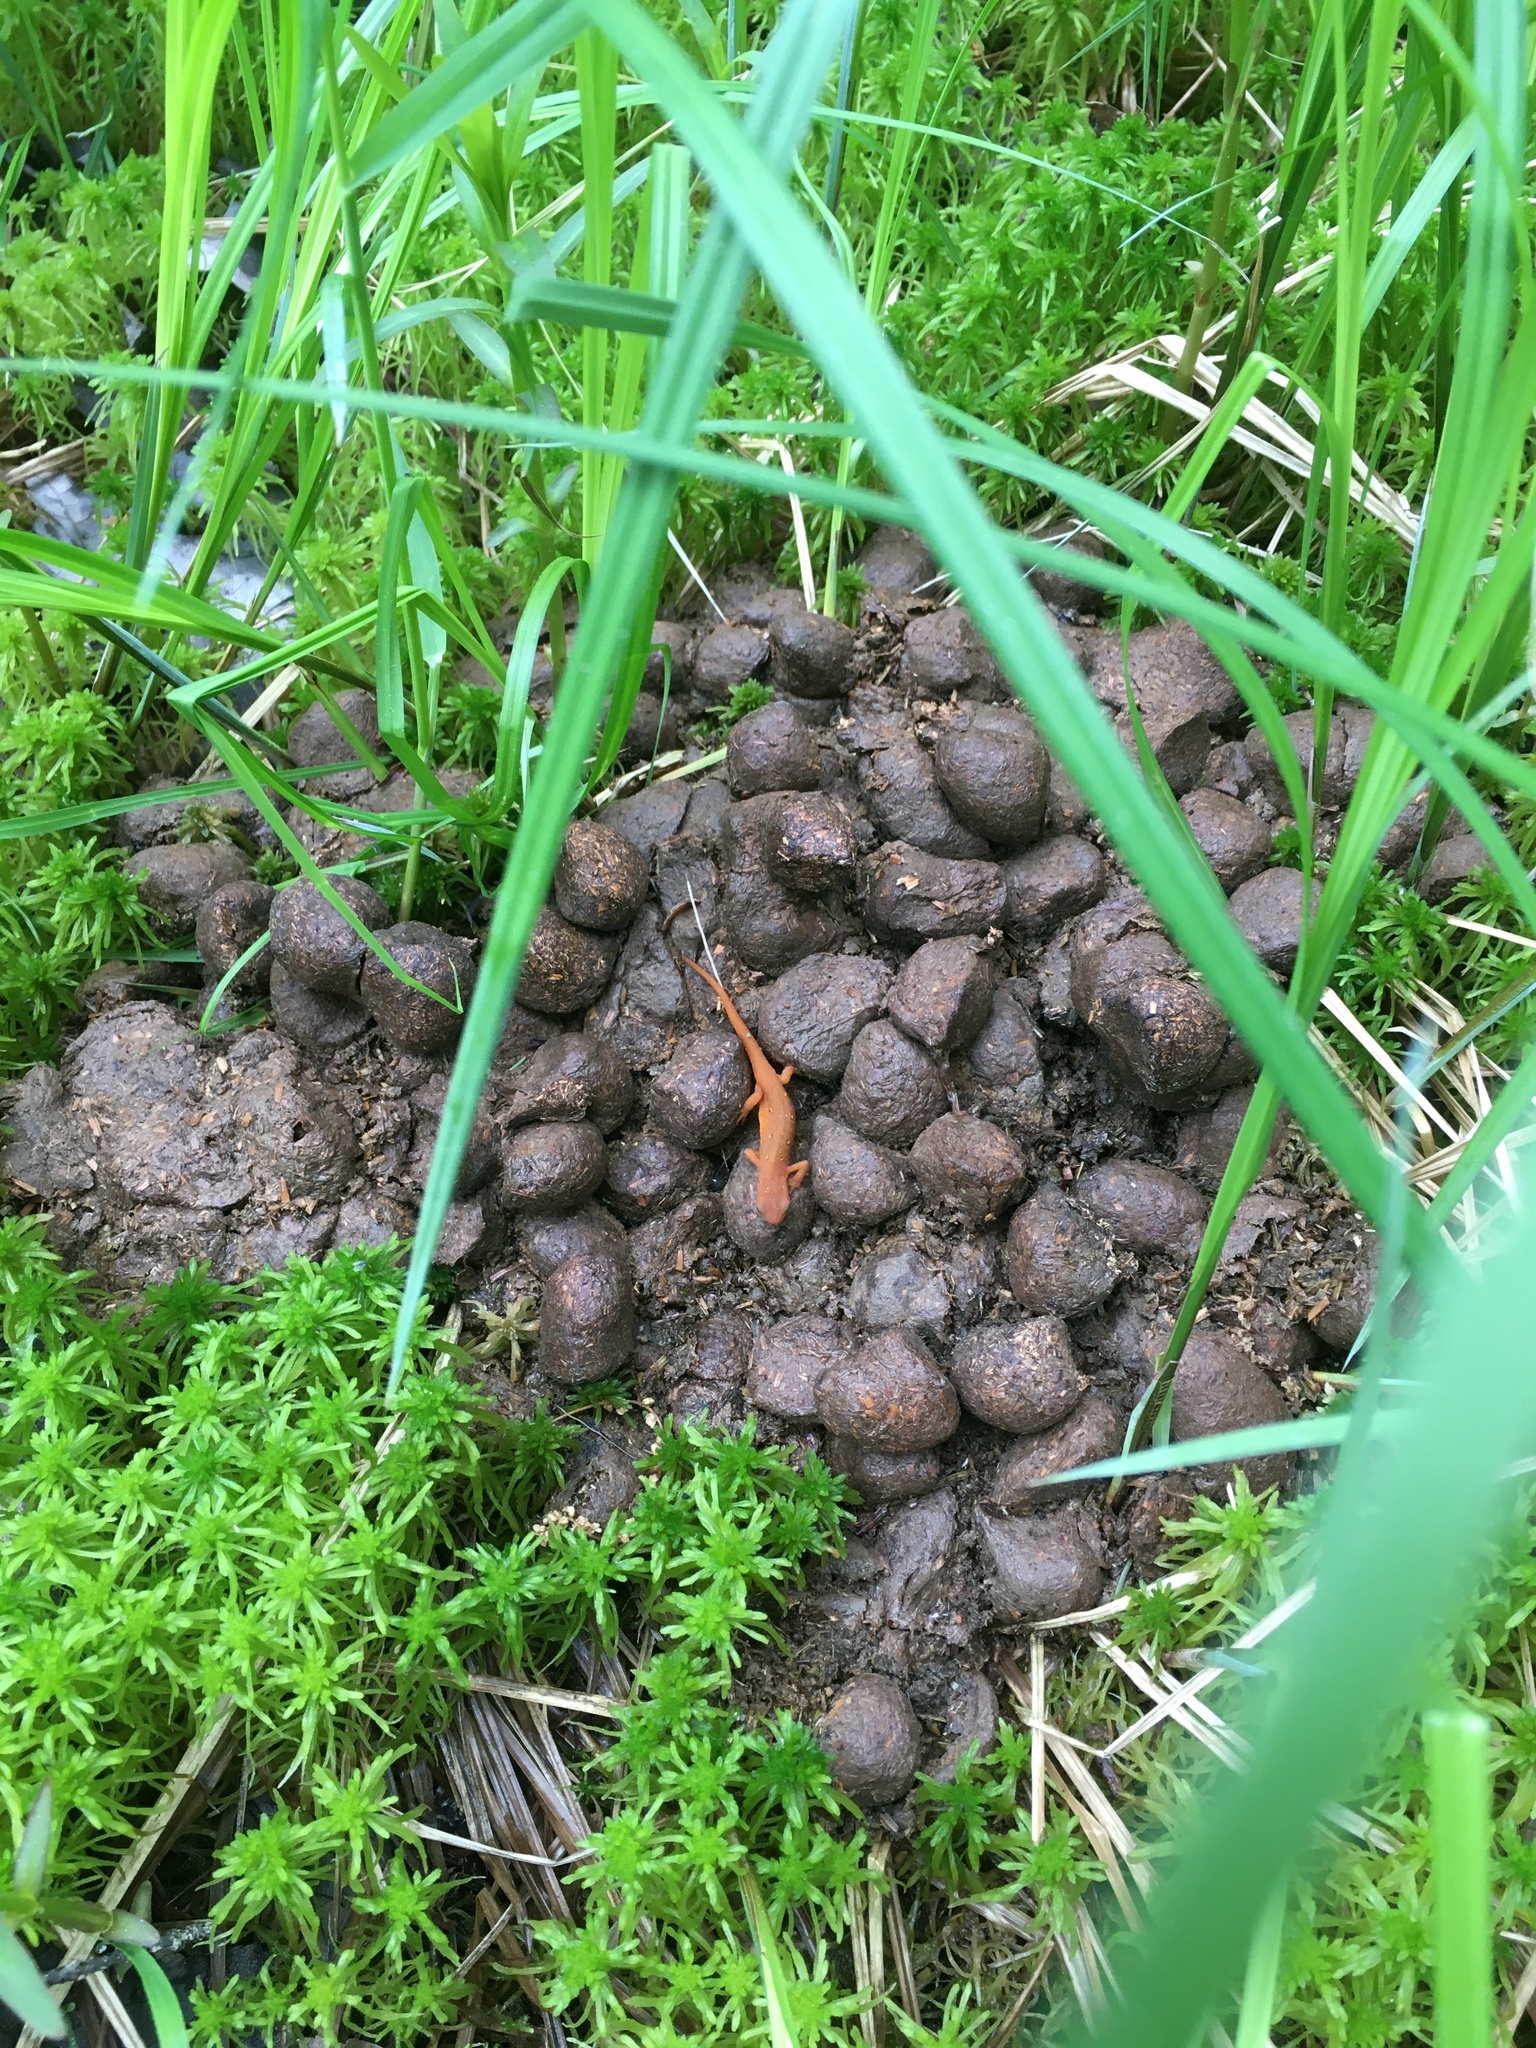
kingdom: Animalia
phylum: Chordata
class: Mammalia
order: Artiodactyla
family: Cervidae
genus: Alces
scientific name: Alces alces
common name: Moose
